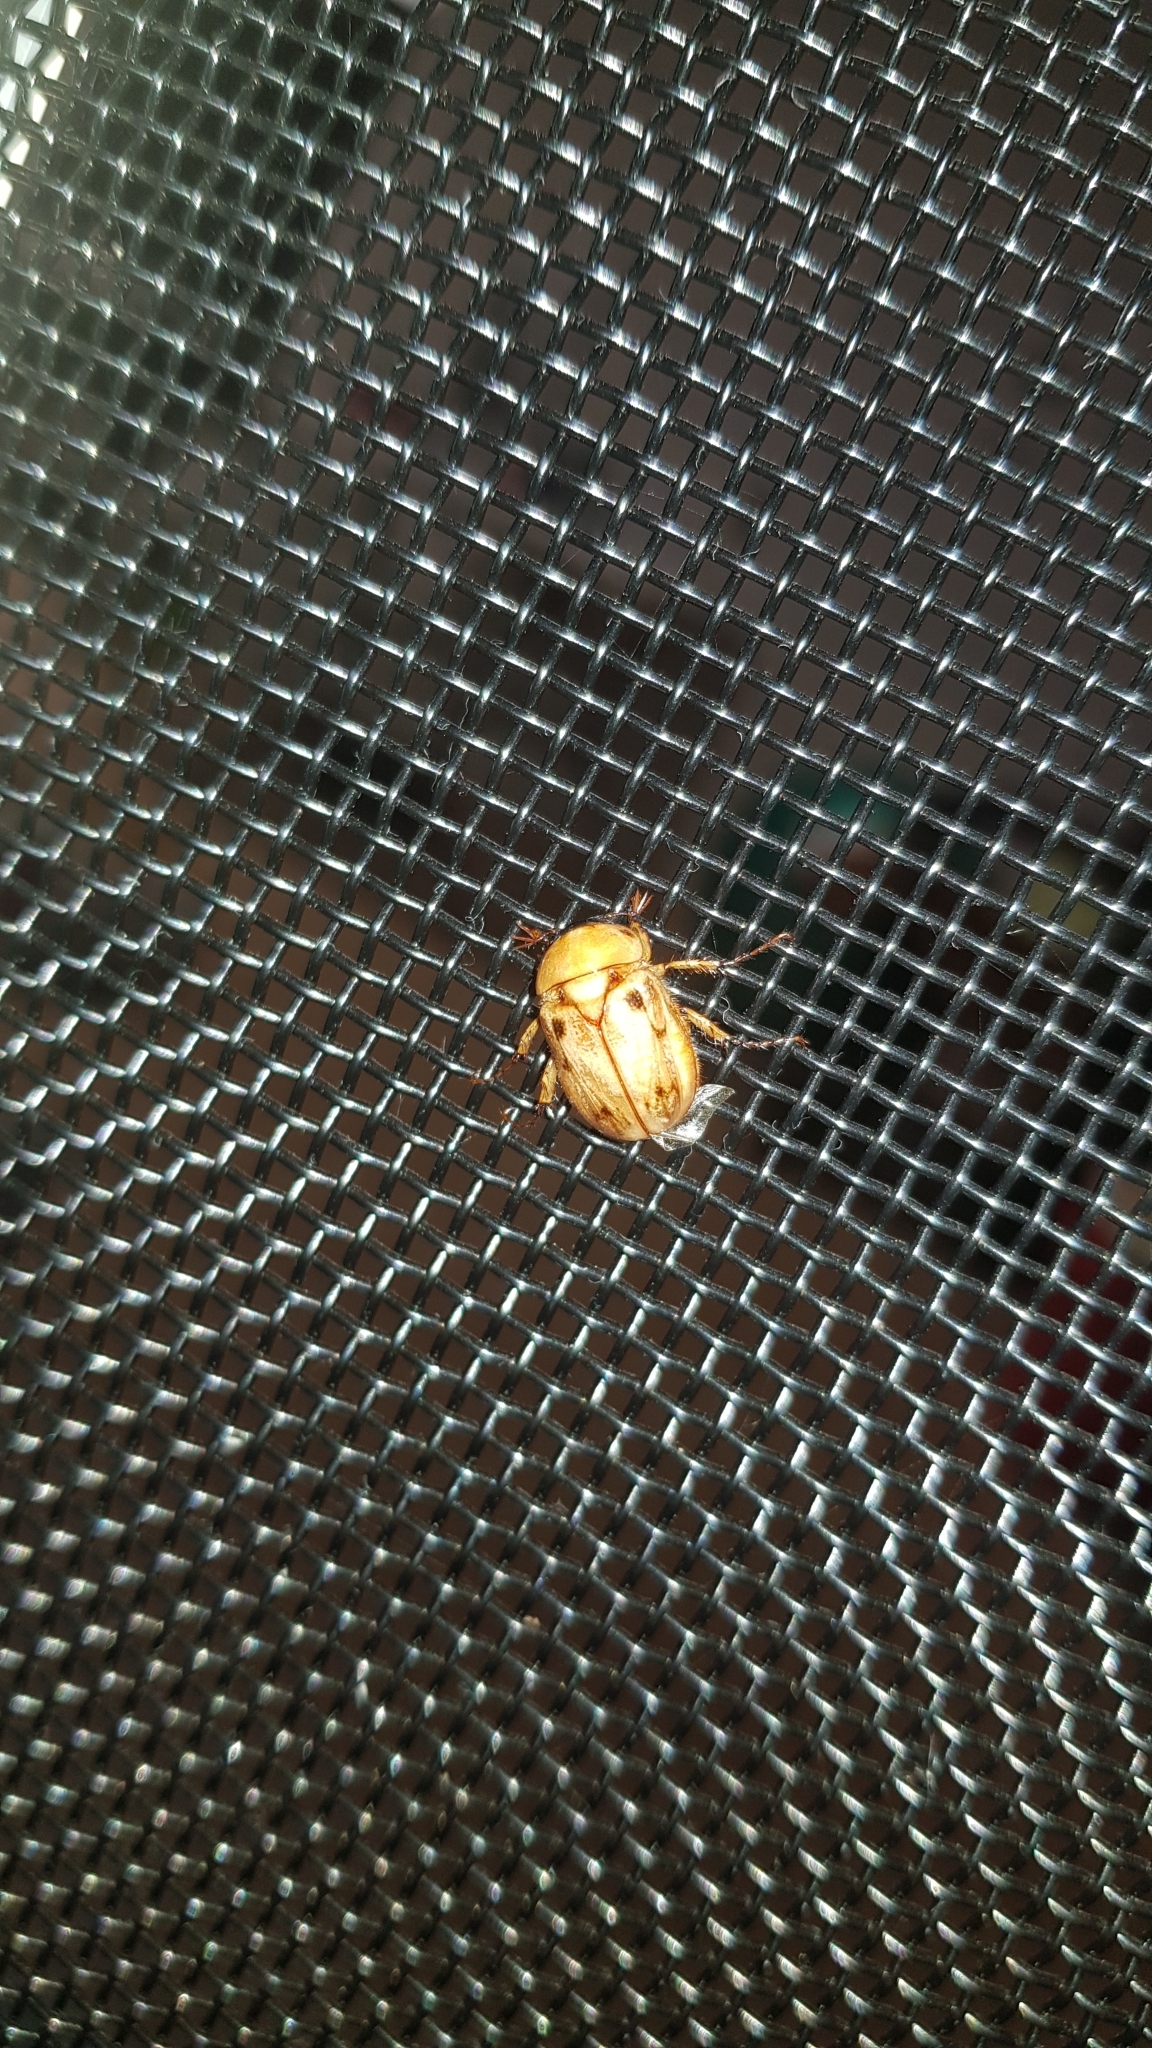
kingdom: Animalia
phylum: Arthropoda
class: Insecta
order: Coleoptera
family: Scarabaeidae
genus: Cyclocephala
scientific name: Cyclocephala signaticollis
